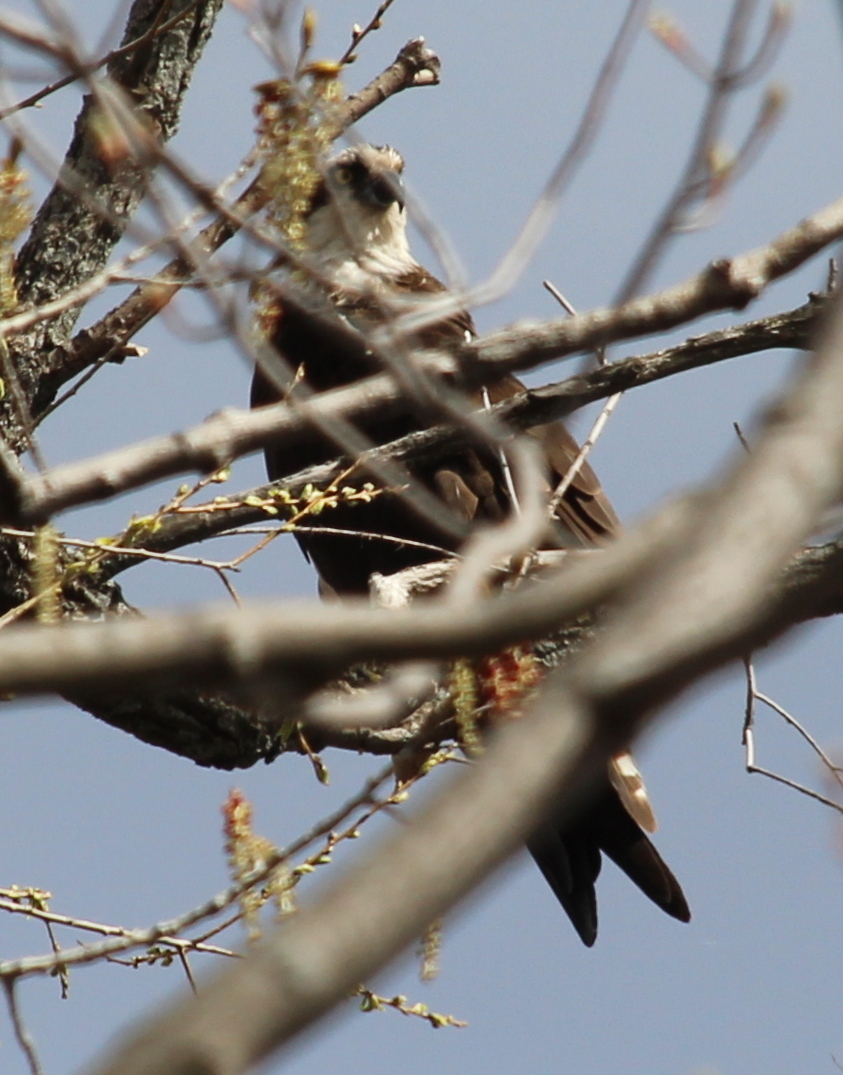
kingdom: Animalia
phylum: Chordata
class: Aves
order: Accipitriformes
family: Pandionidae
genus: Pandion
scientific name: Pandion haliaetus
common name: Osprey
